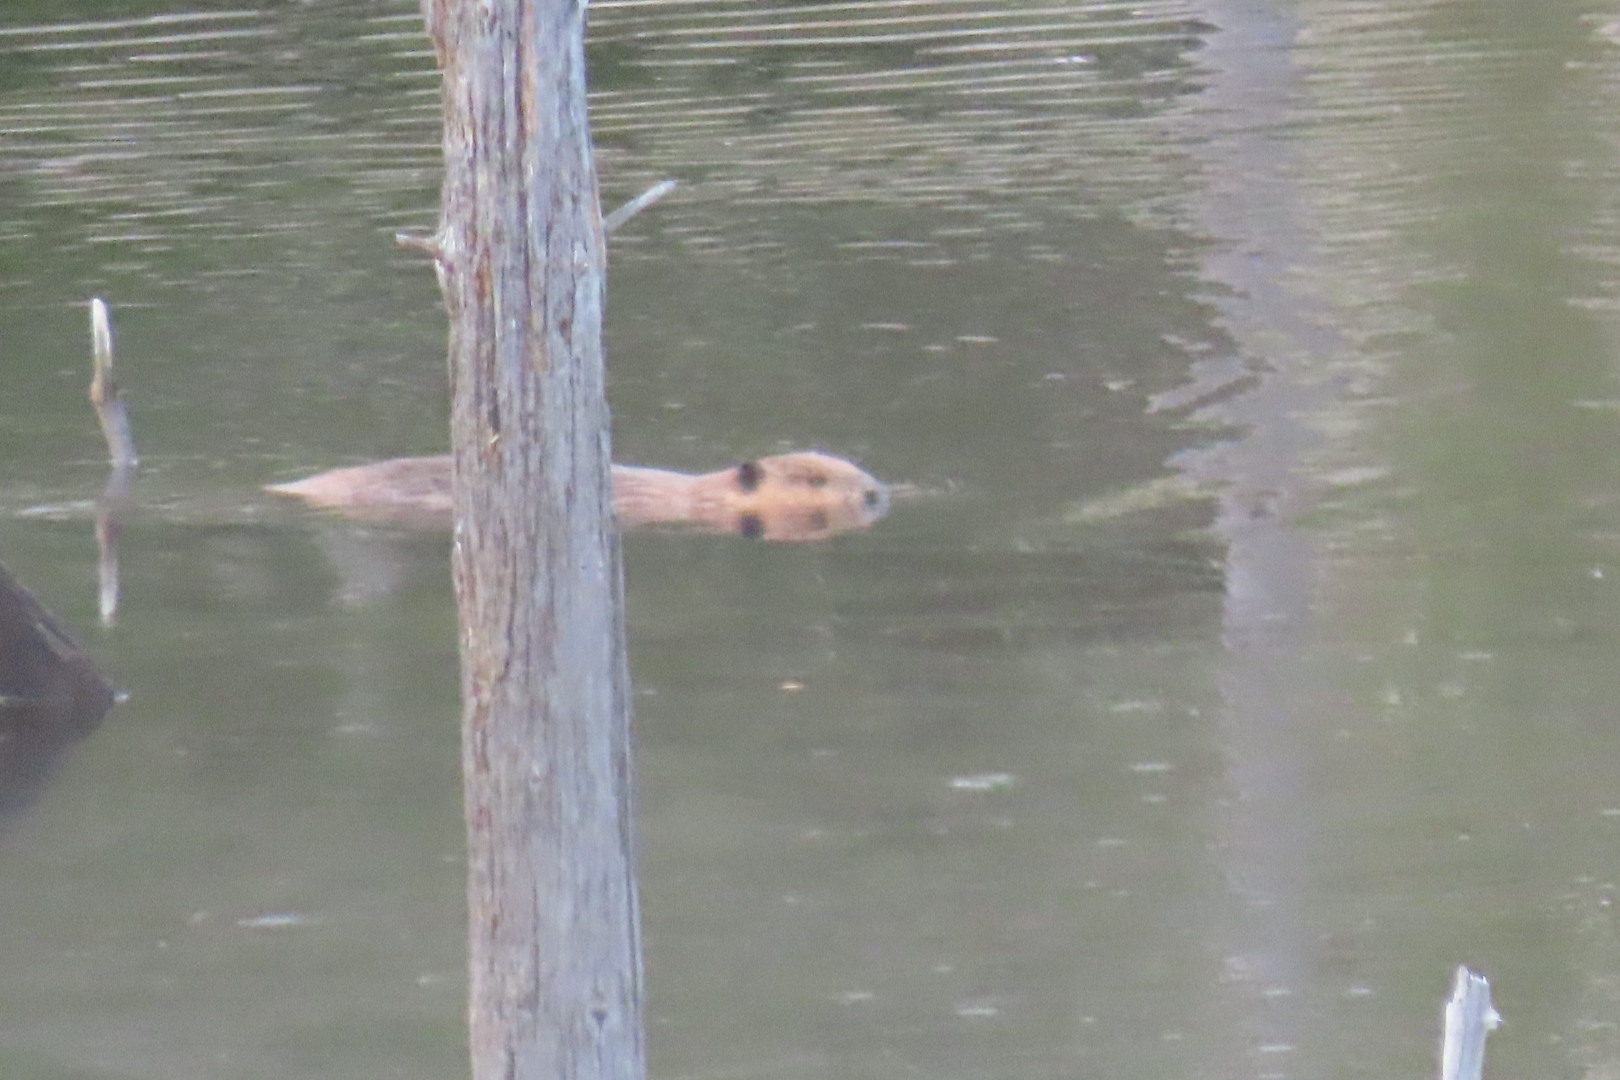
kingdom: Animalia
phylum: Chordata
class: Mammalia
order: Rodentia
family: Castoridae
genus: Castor
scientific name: Castor canadensis
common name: American beaver
